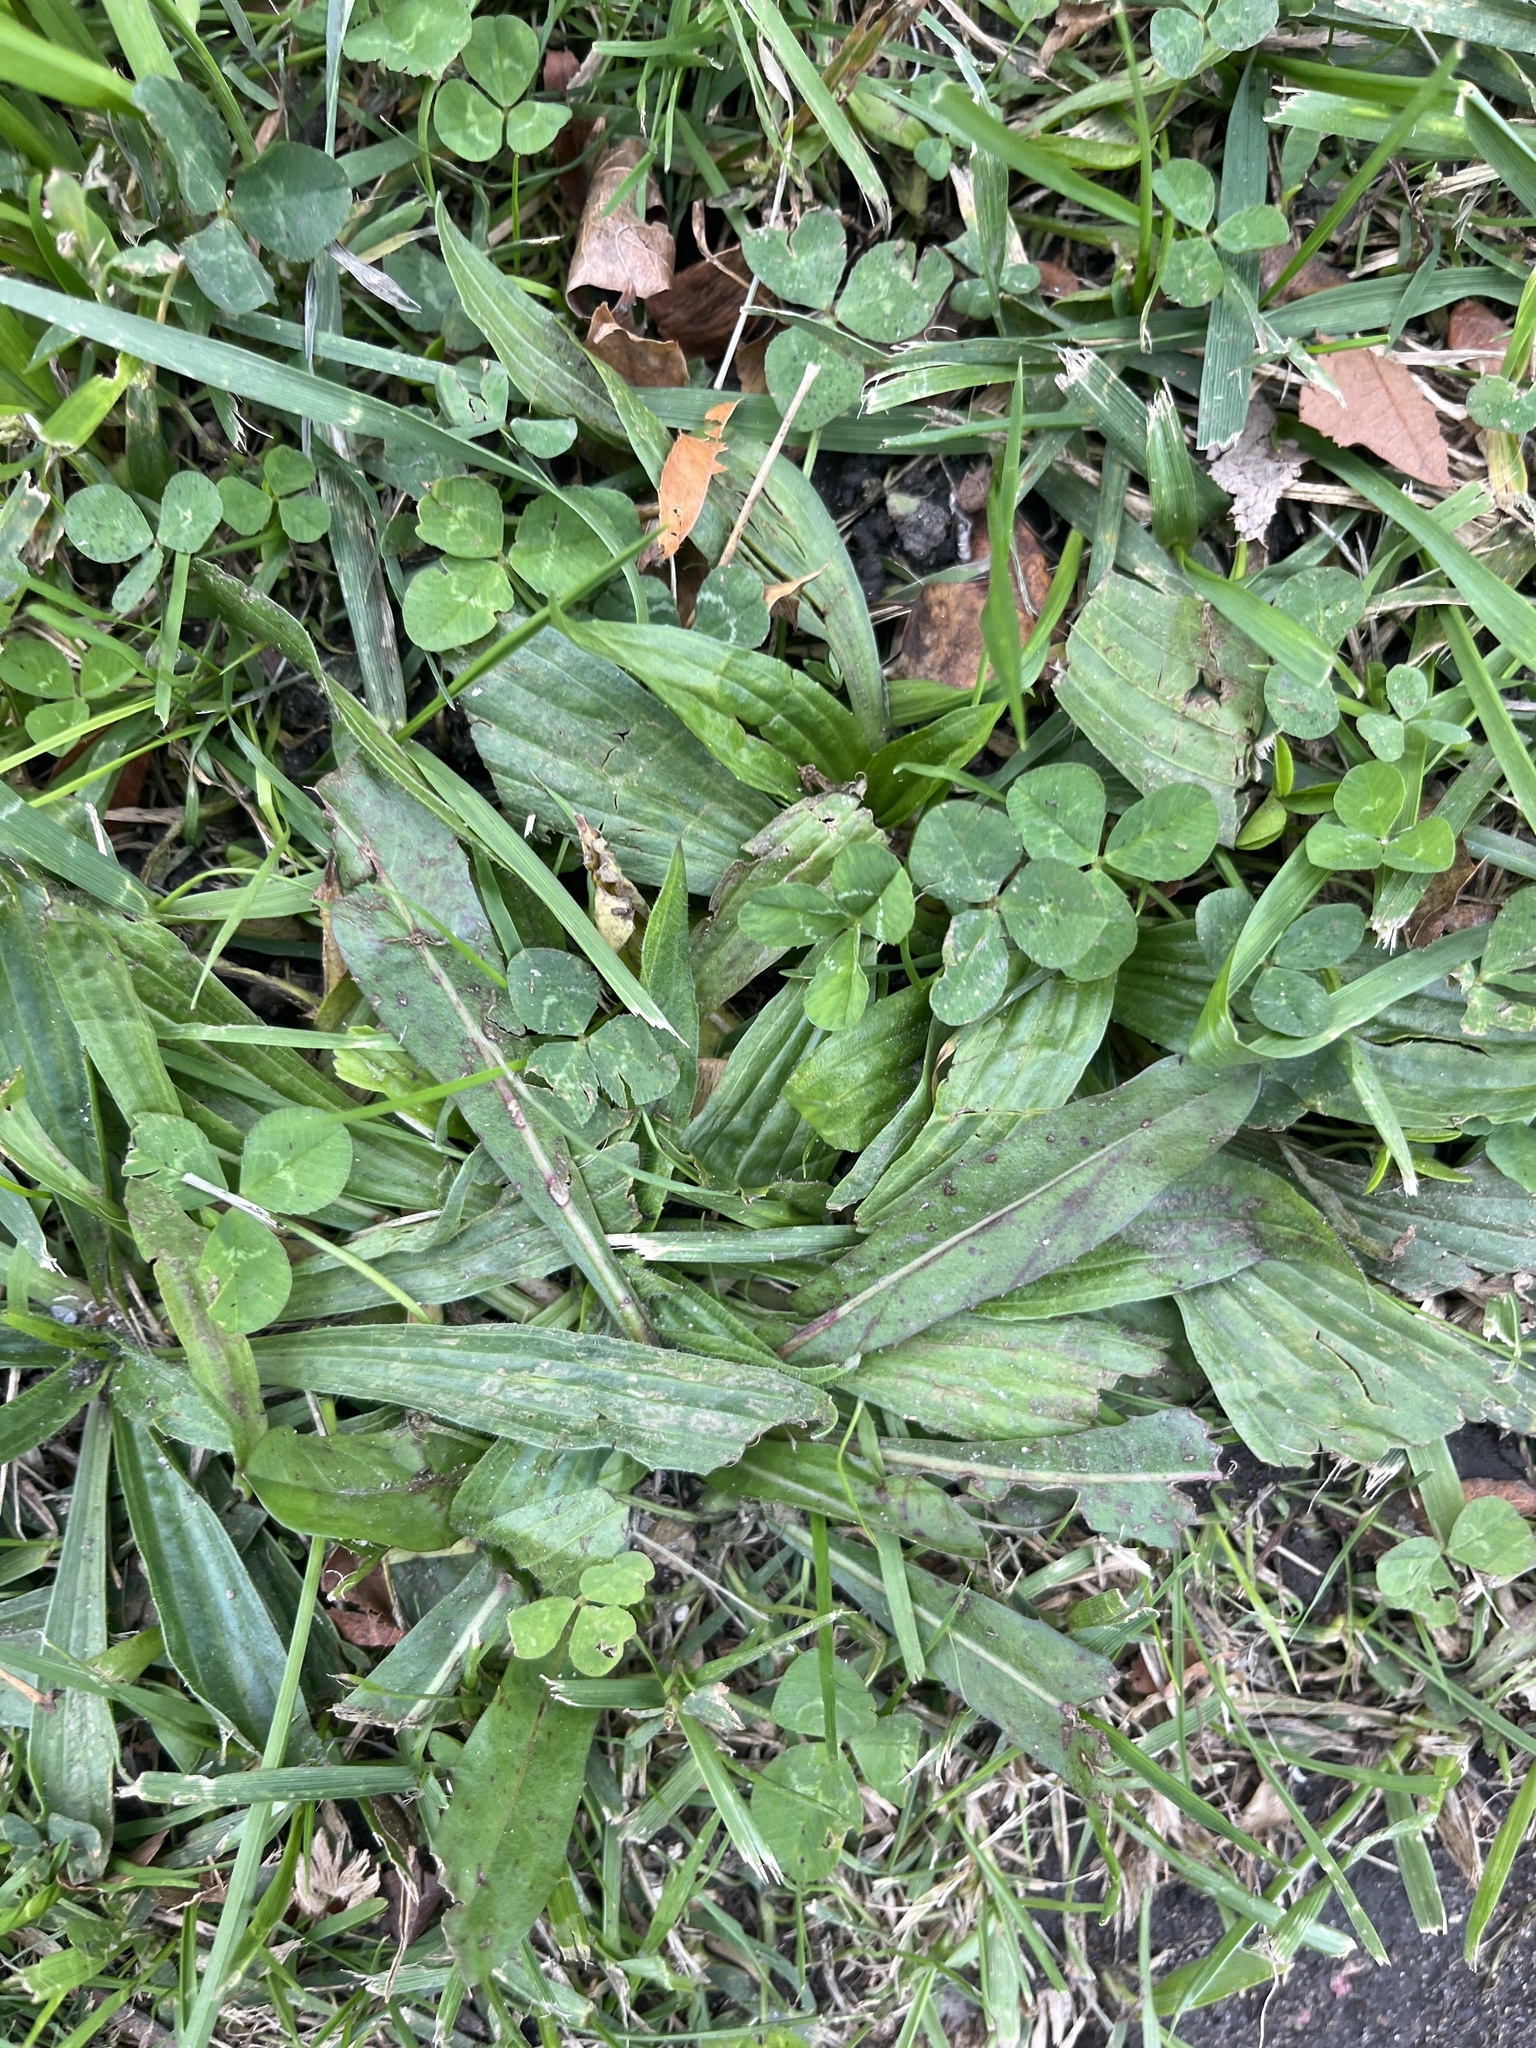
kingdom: Plantae
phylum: Tracheophyta
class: Magnoliopsida
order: Lamiales
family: Plantaginaceae
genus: Plantago
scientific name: Plantago lanceolata
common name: Ribwort plantain
